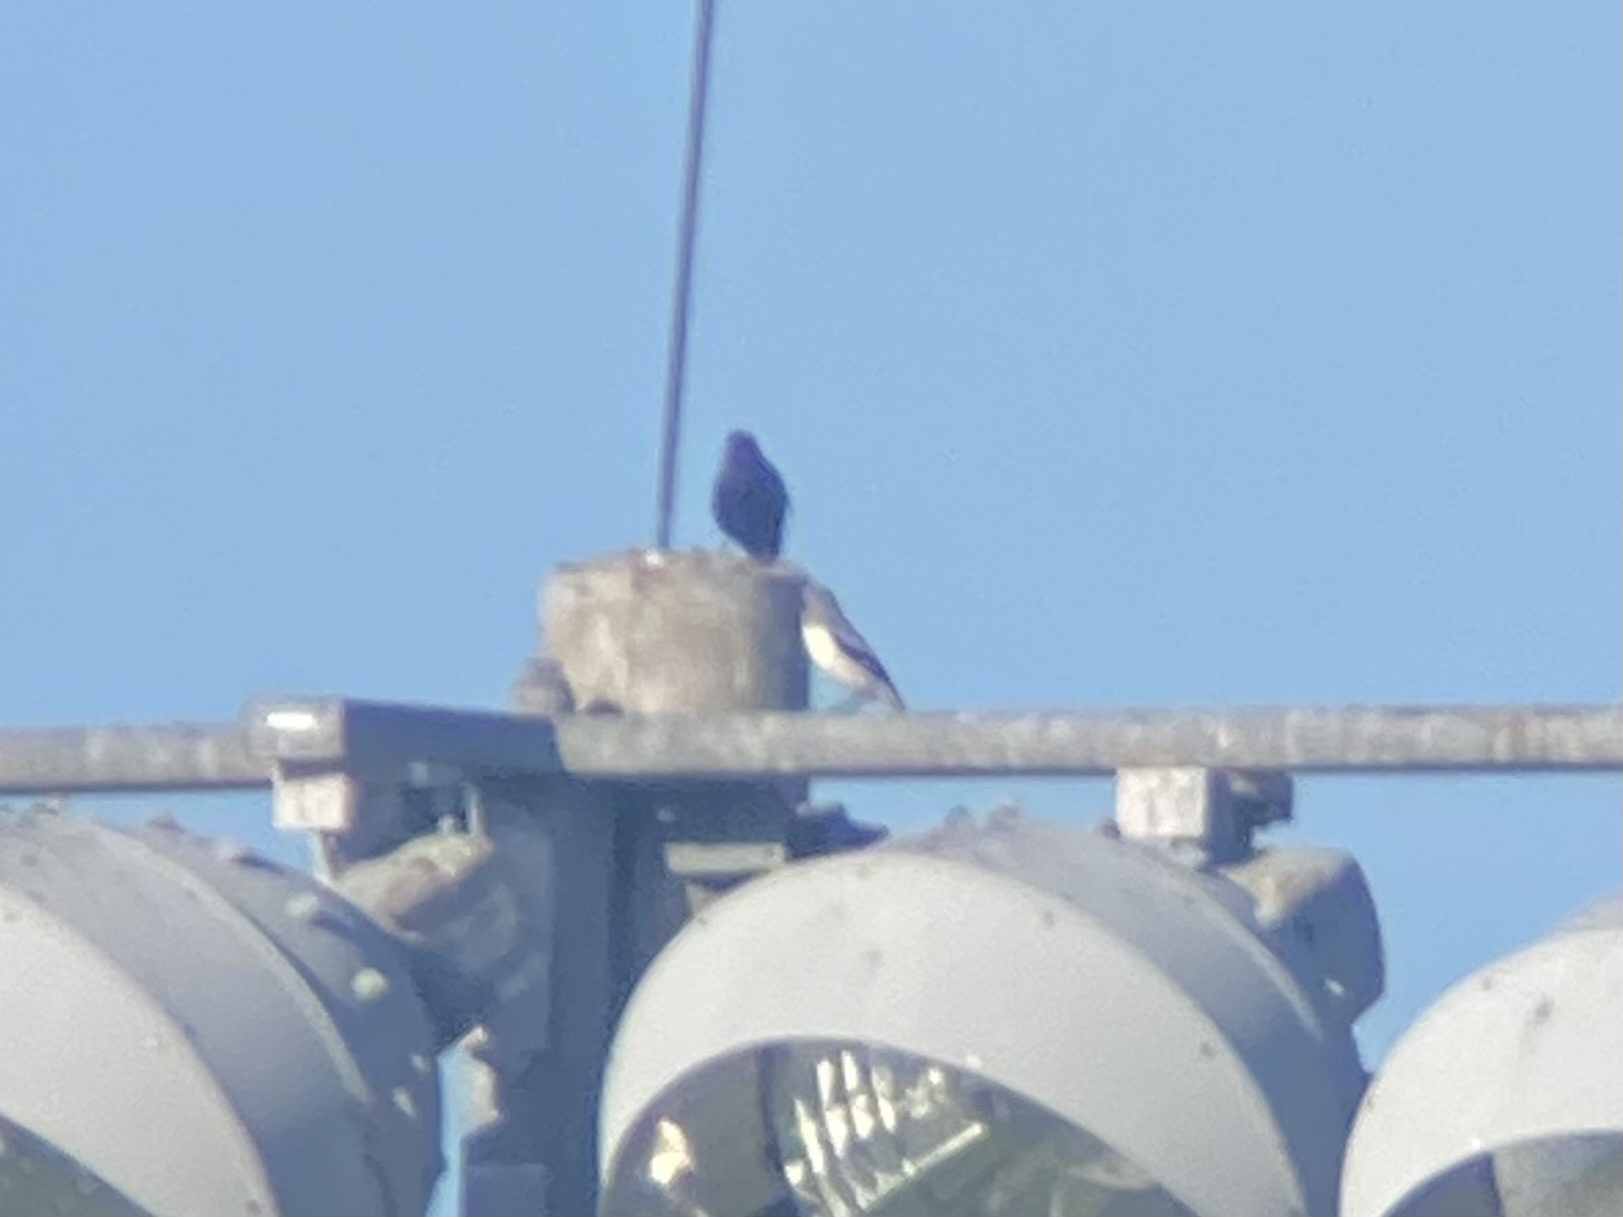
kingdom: Animalia
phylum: Chordata
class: Aves
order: Passeriformes
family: Laniidae
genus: Lanius
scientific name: Lanius ludovicianus
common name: Loggerhead shrike
